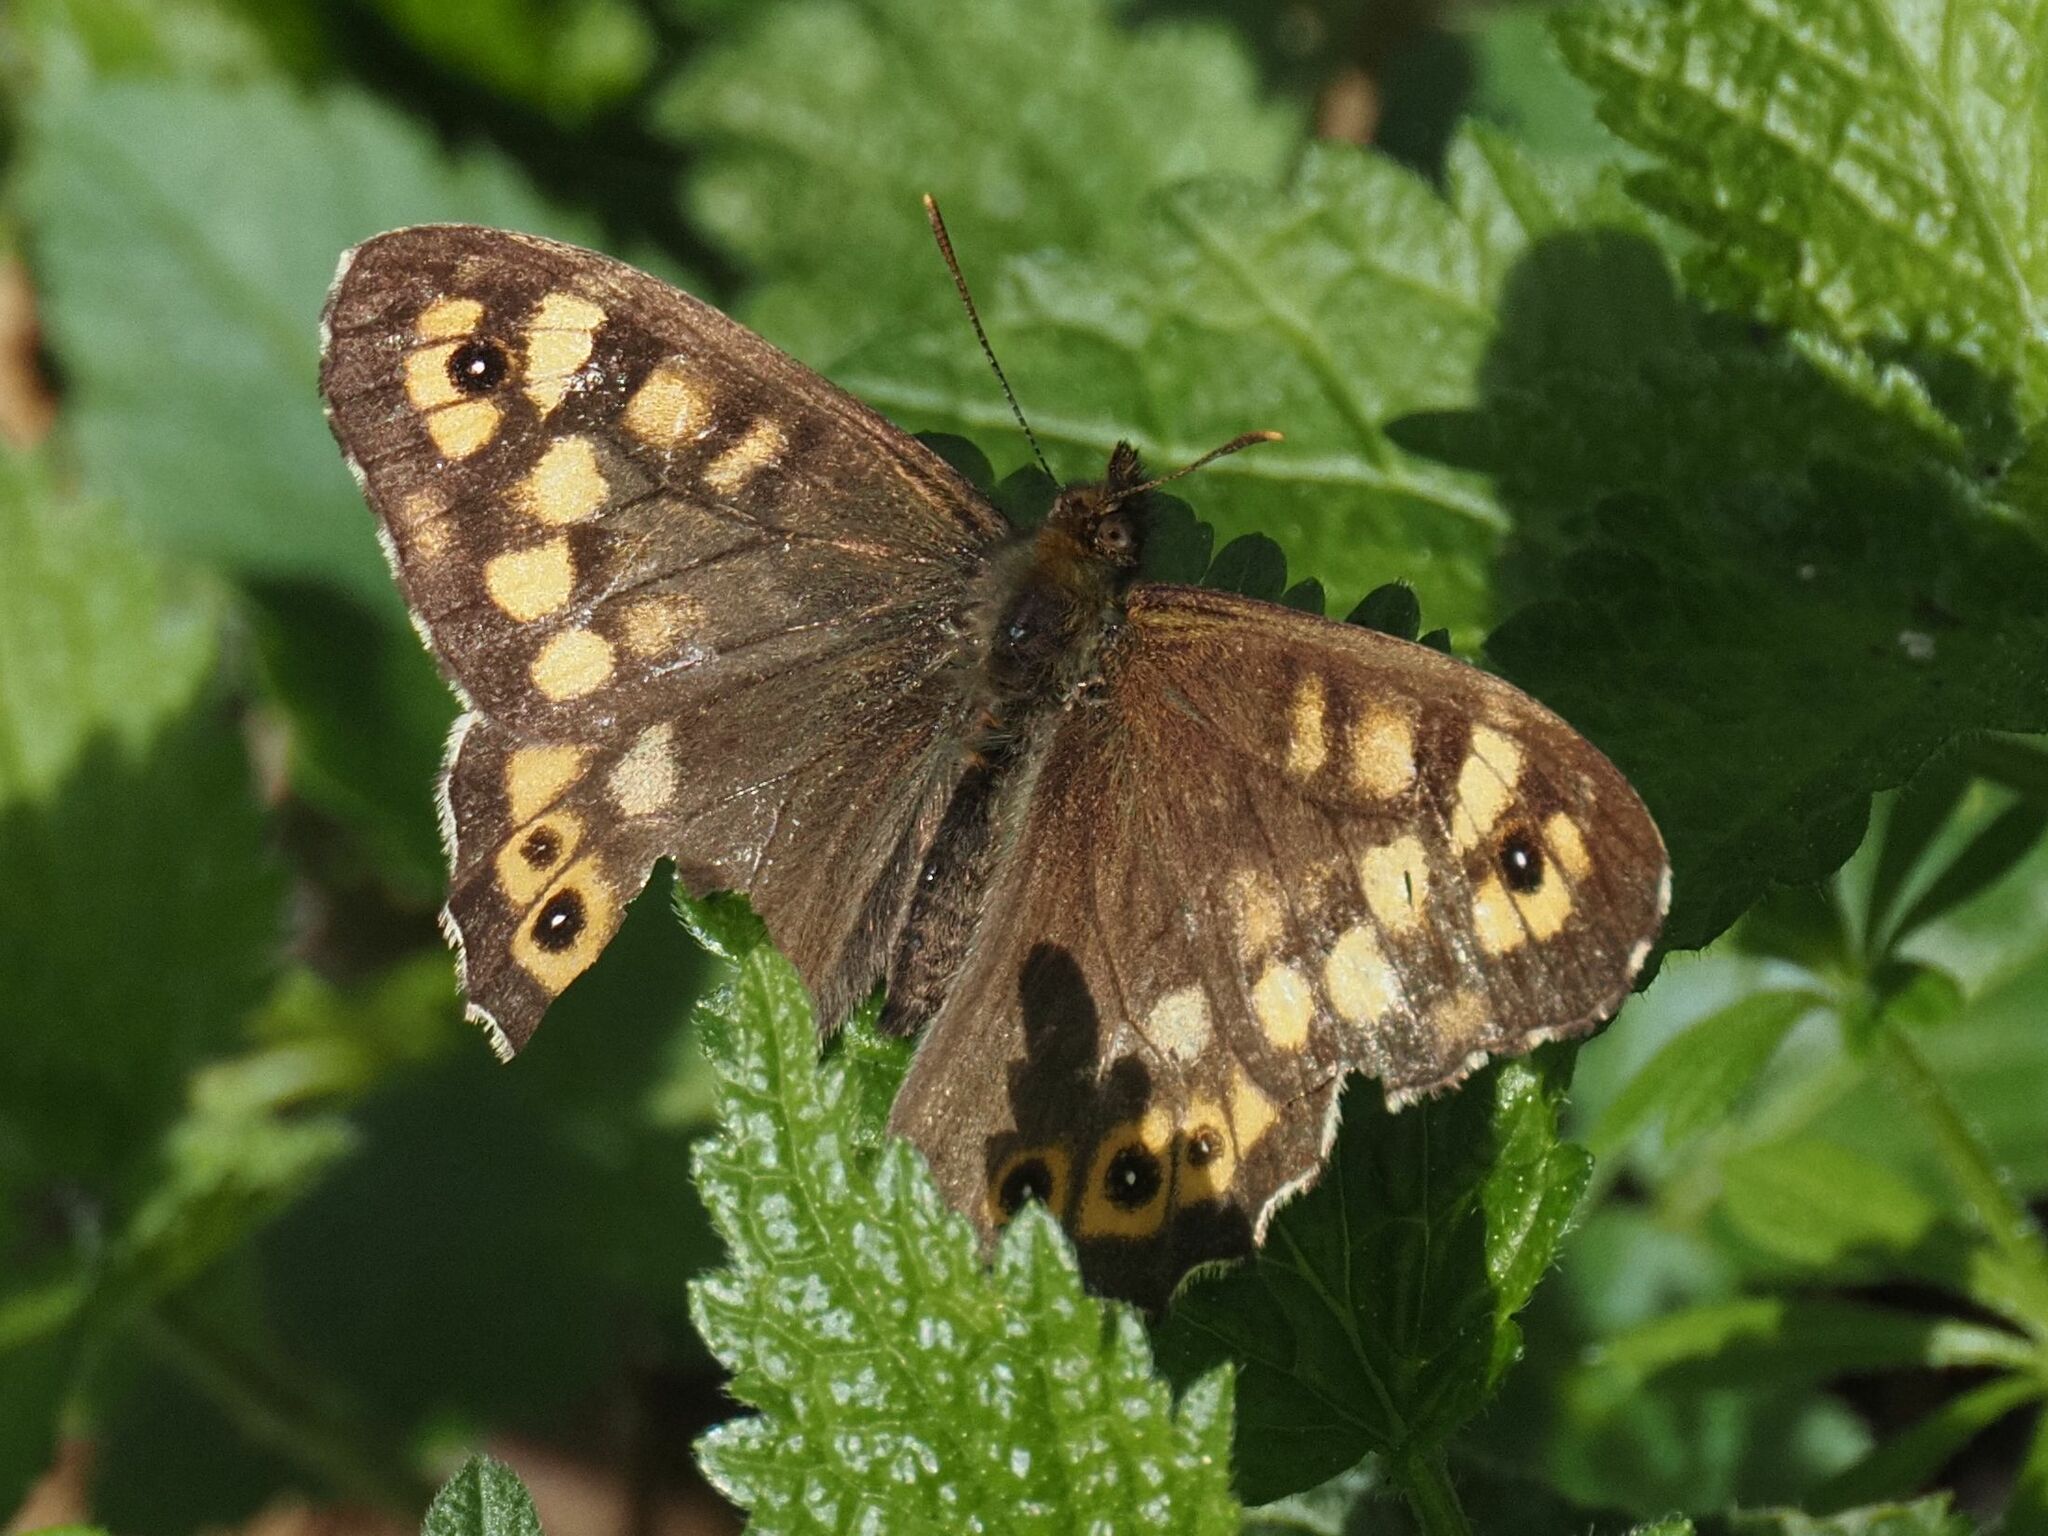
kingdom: Animalia
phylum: Arthropoda
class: Insecta
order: Lepidoptera
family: Nymphalidae
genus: Pararge
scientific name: Pararge aegeria
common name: Speckled wood
